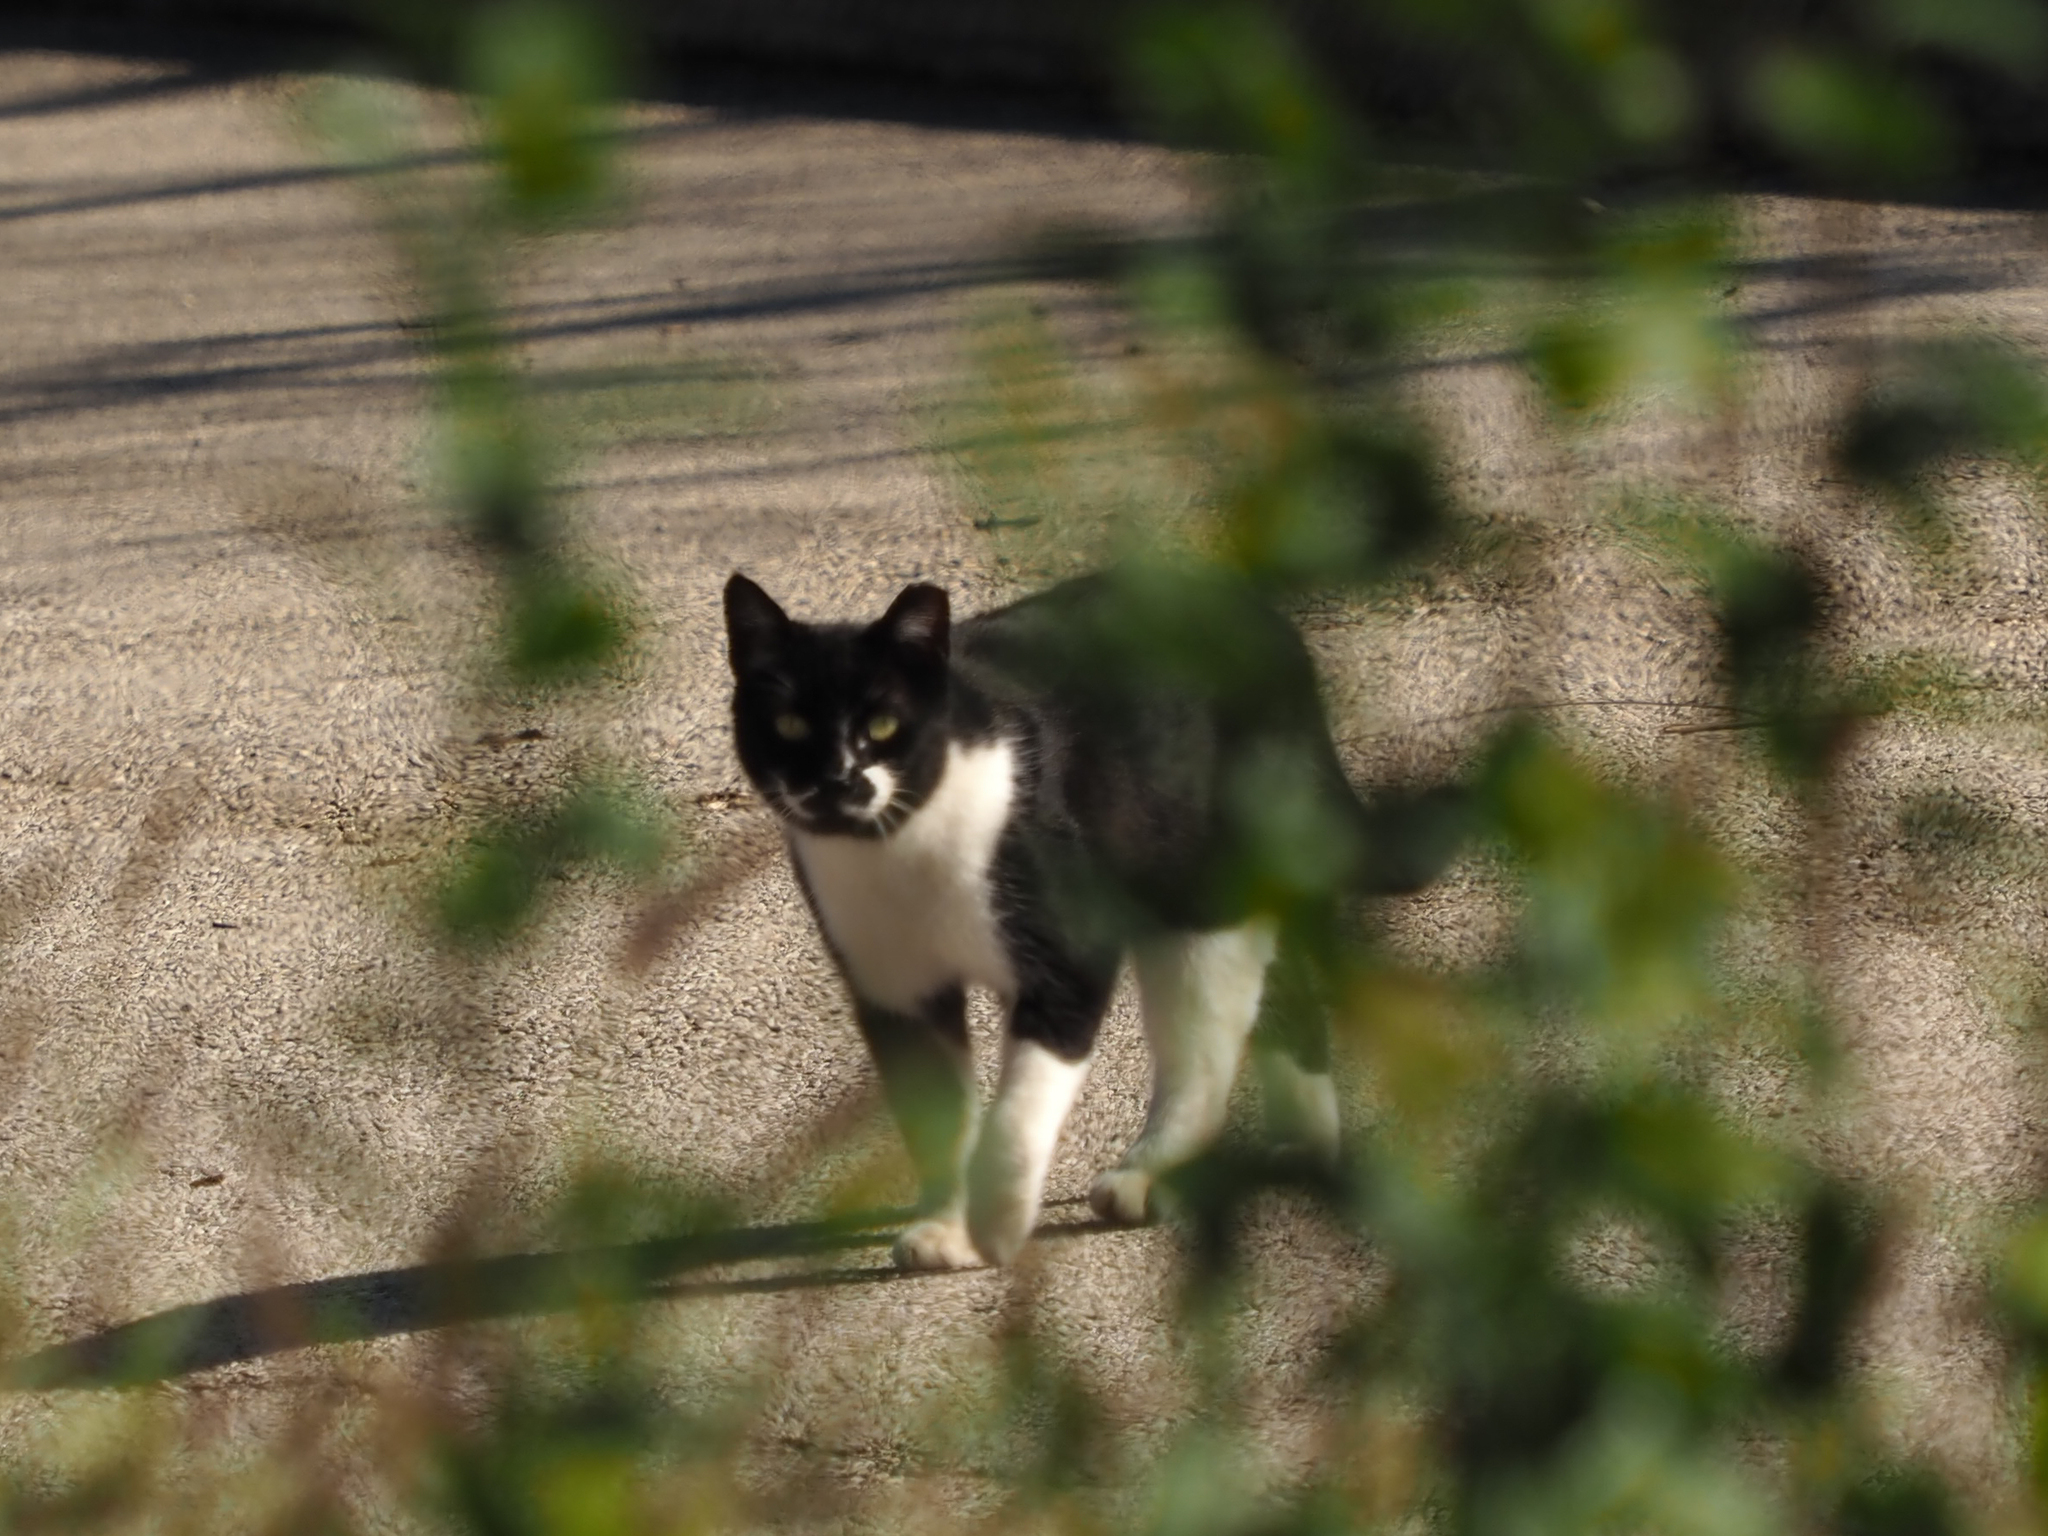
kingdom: Animalia
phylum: Chordata
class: Mammalia
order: Carnivora
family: Felidae
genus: Felis
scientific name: Felis catus
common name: Domestic cat
